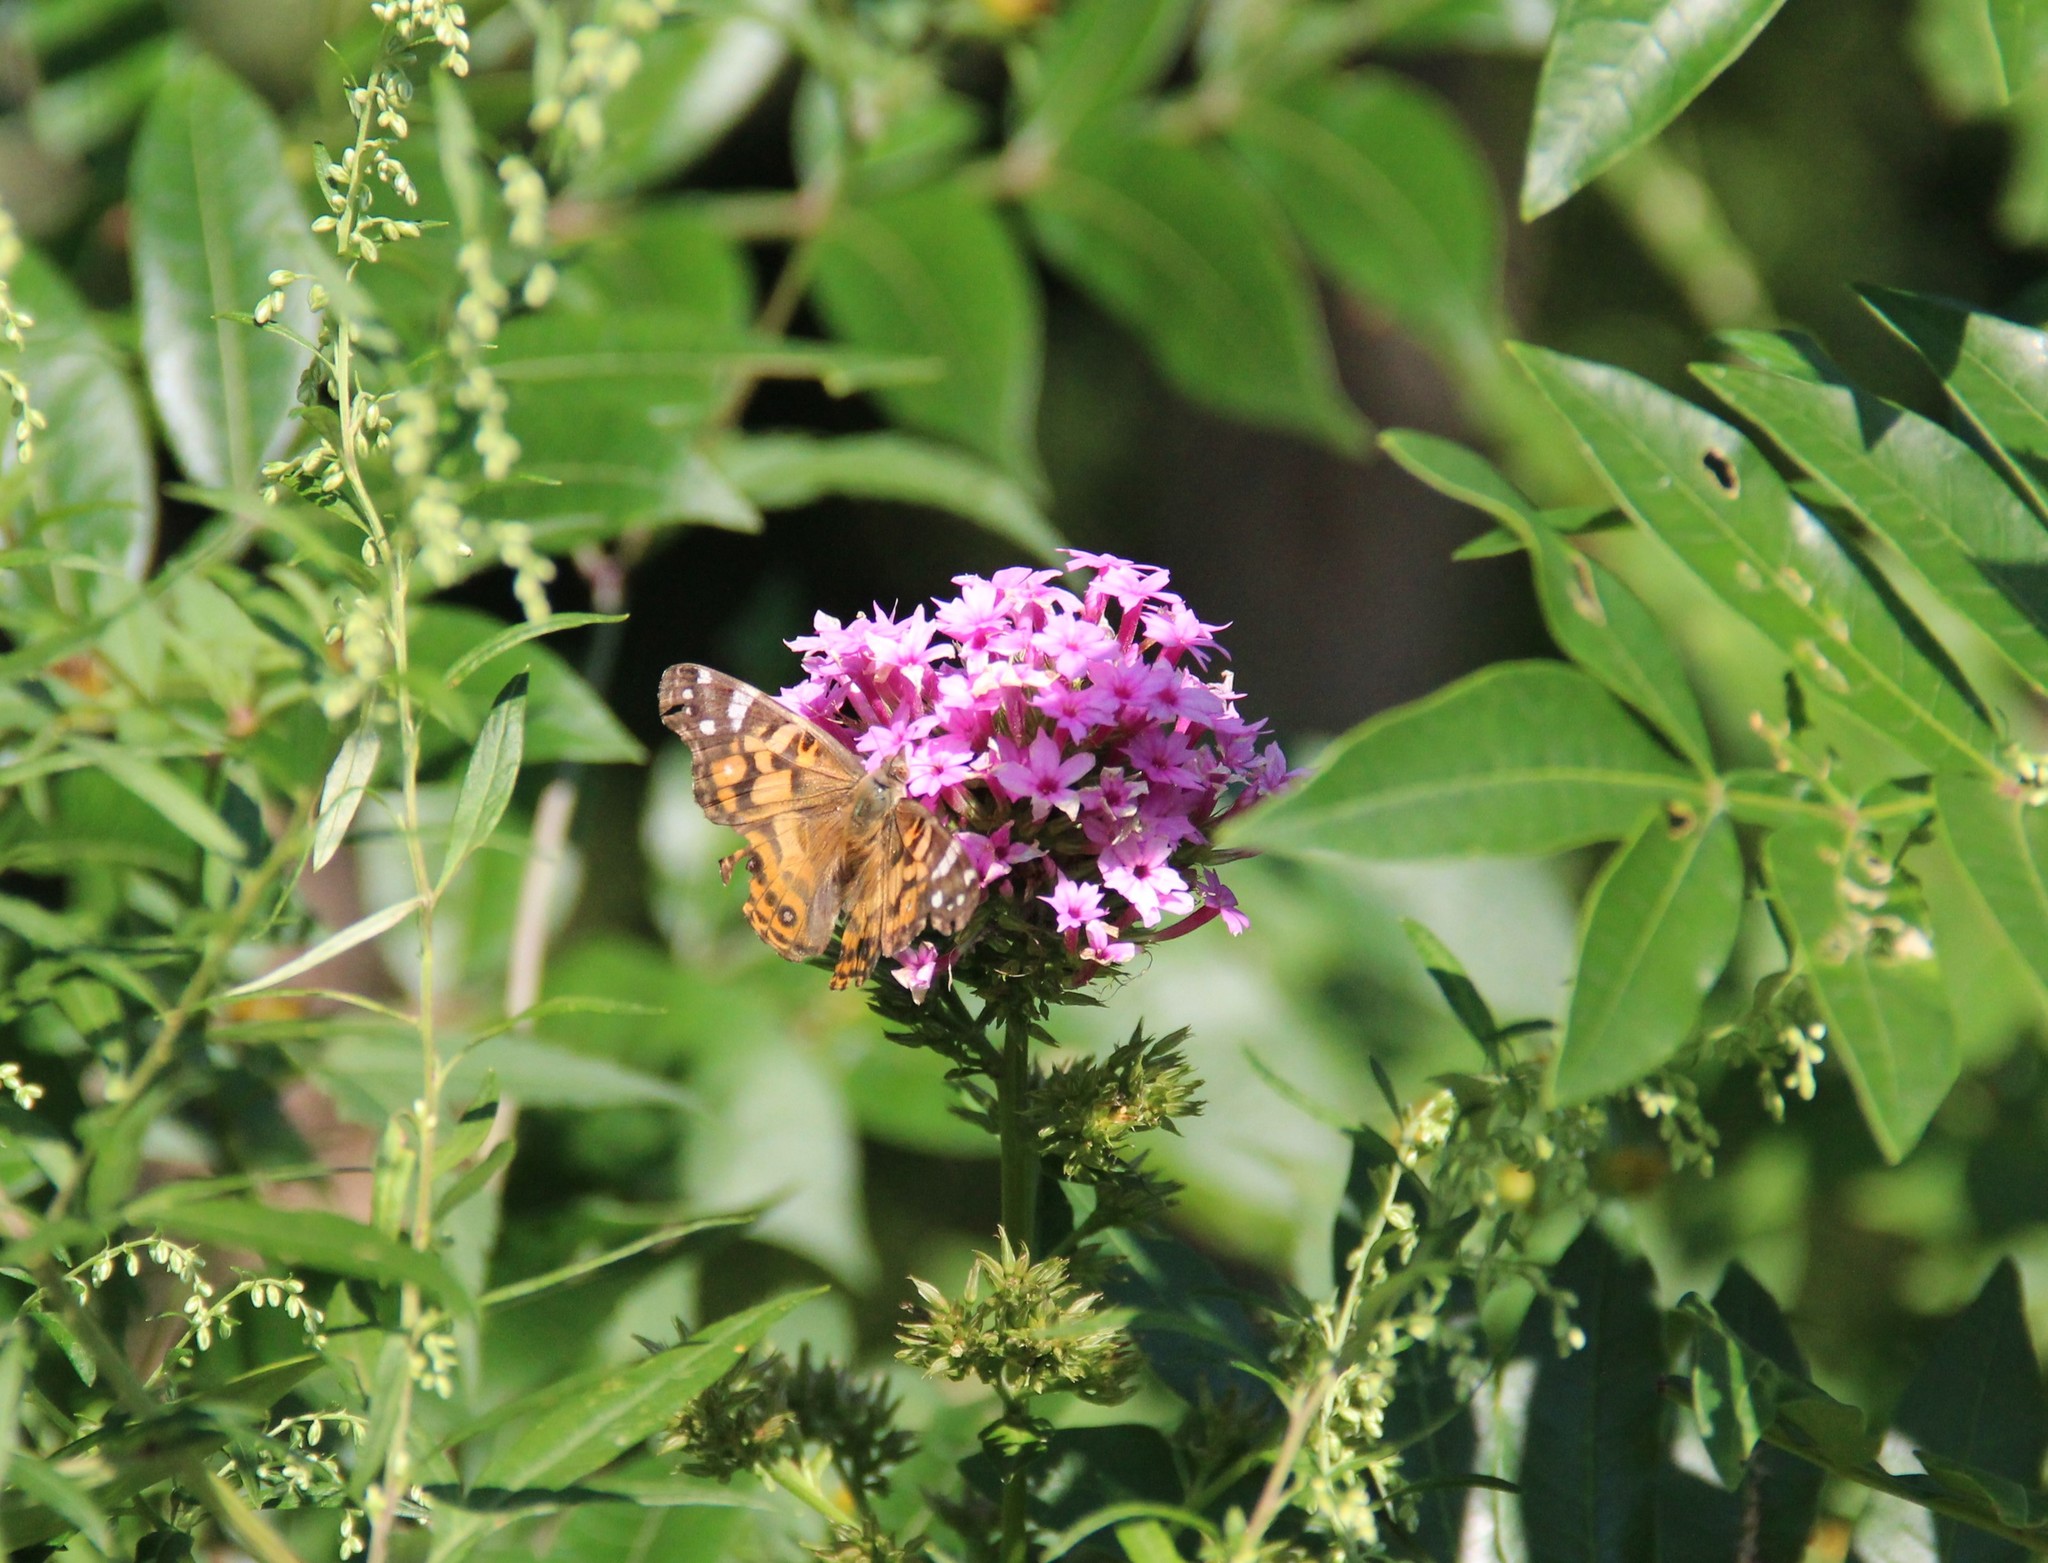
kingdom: Animalia
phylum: Arthropoda
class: Insecta
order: Lepidoptera
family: Nymphalidae
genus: Vanessa
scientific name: Vanessa virginiensis
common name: American lady
